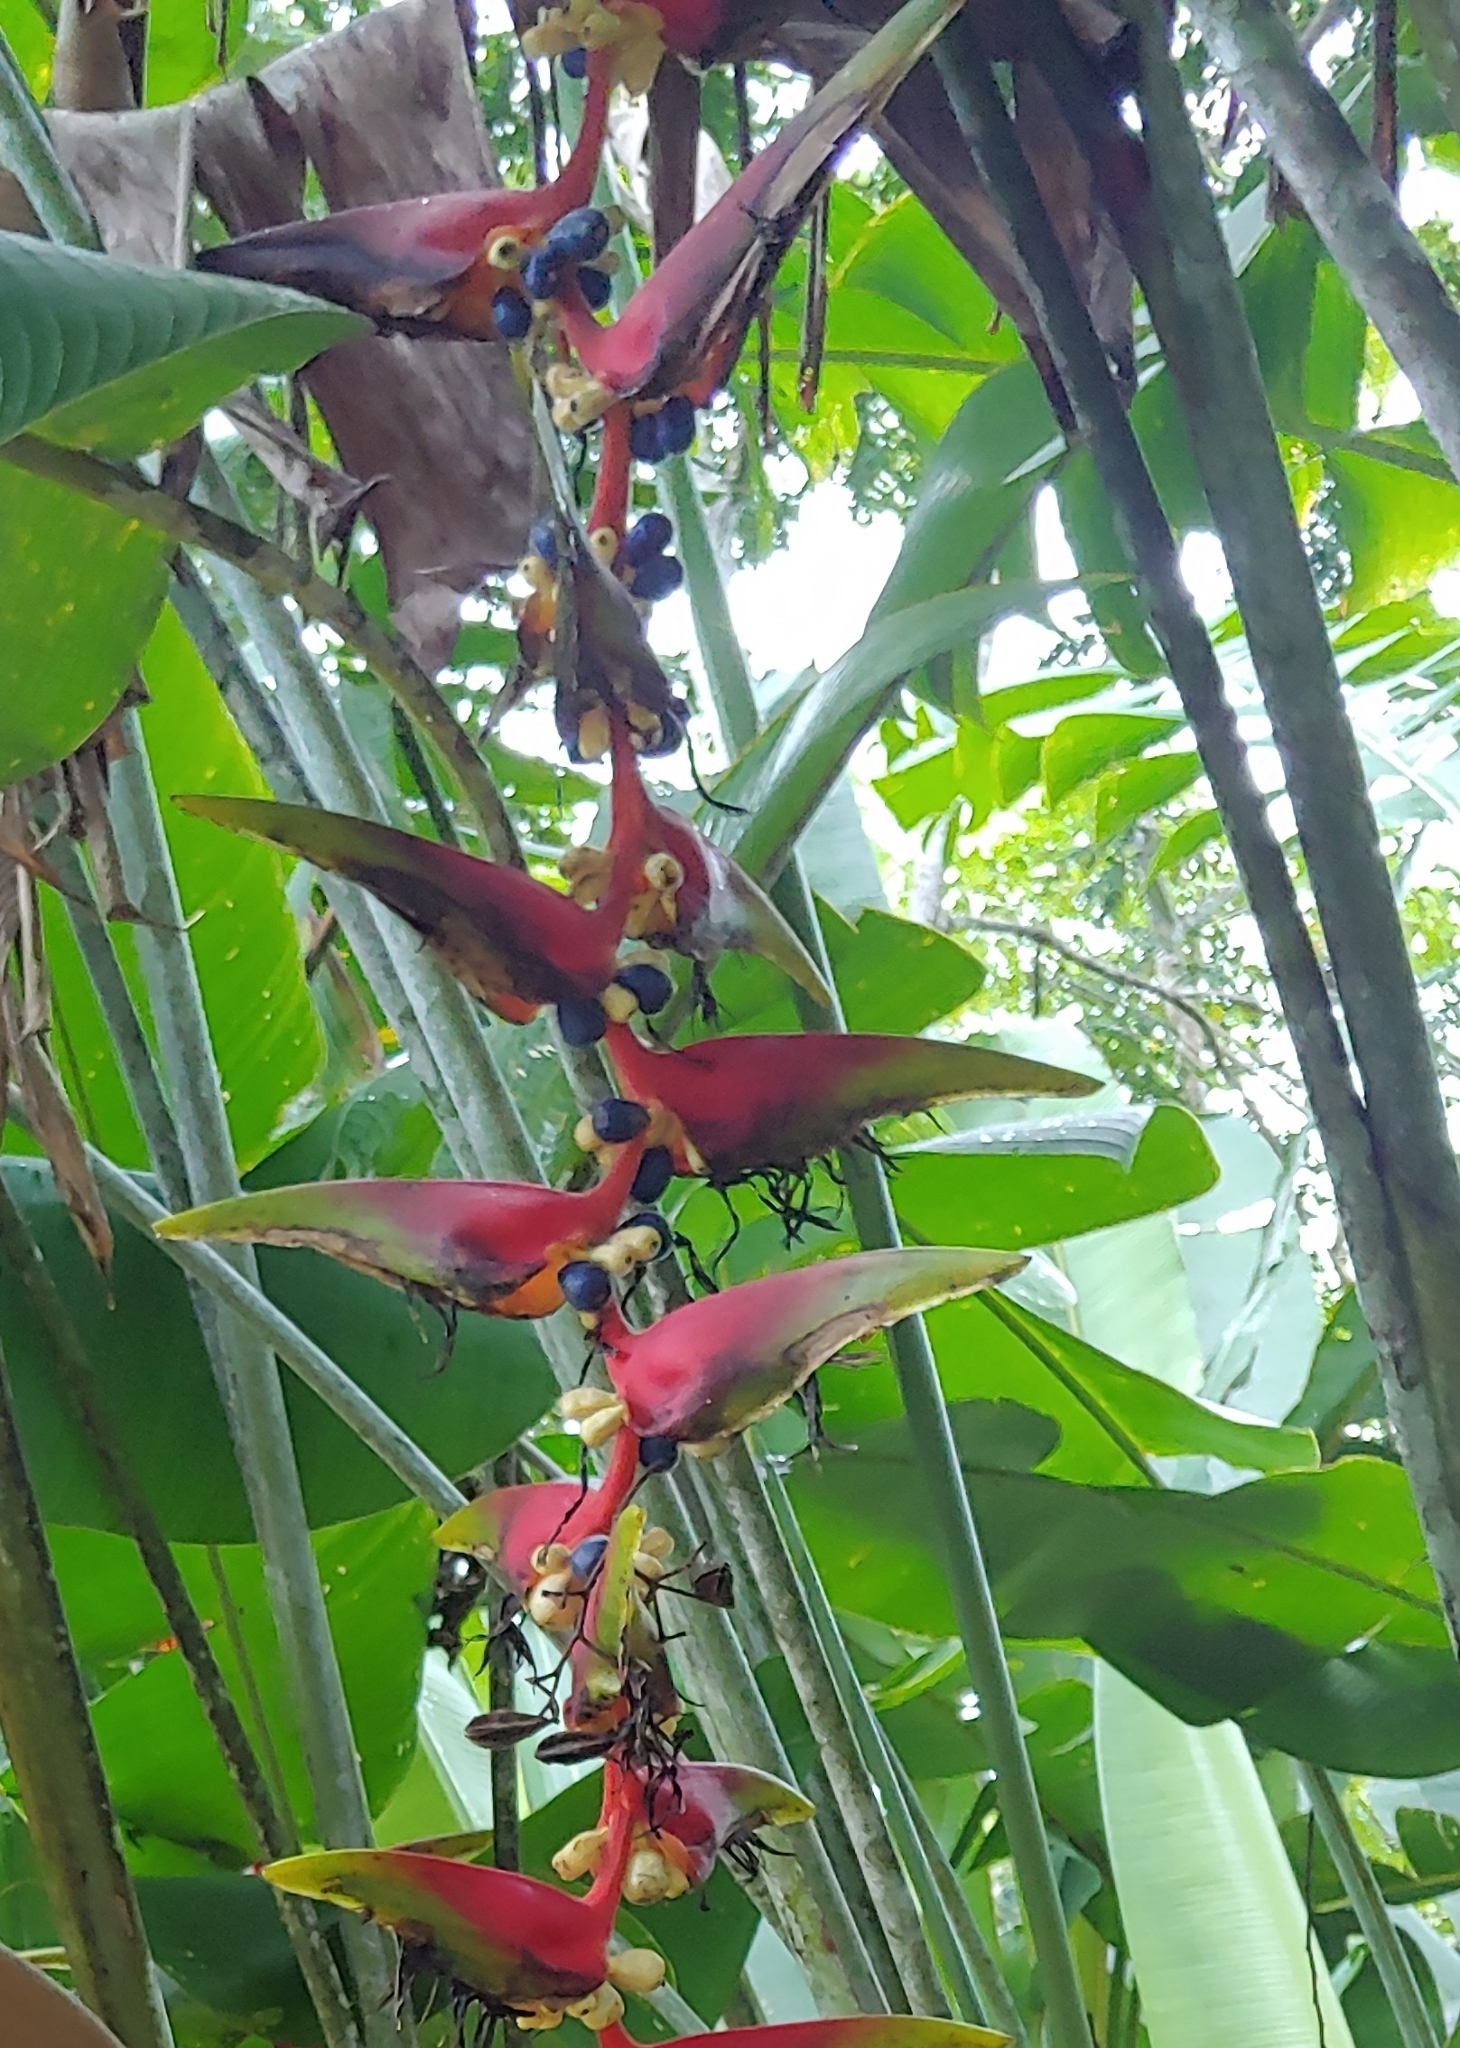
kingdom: Plantae
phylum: Tracheophyta
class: Liliopsida
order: Zingiberales
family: Heliconiaceae
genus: Heliconia
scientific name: Heliconia platystachys
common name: False bird of paradise
